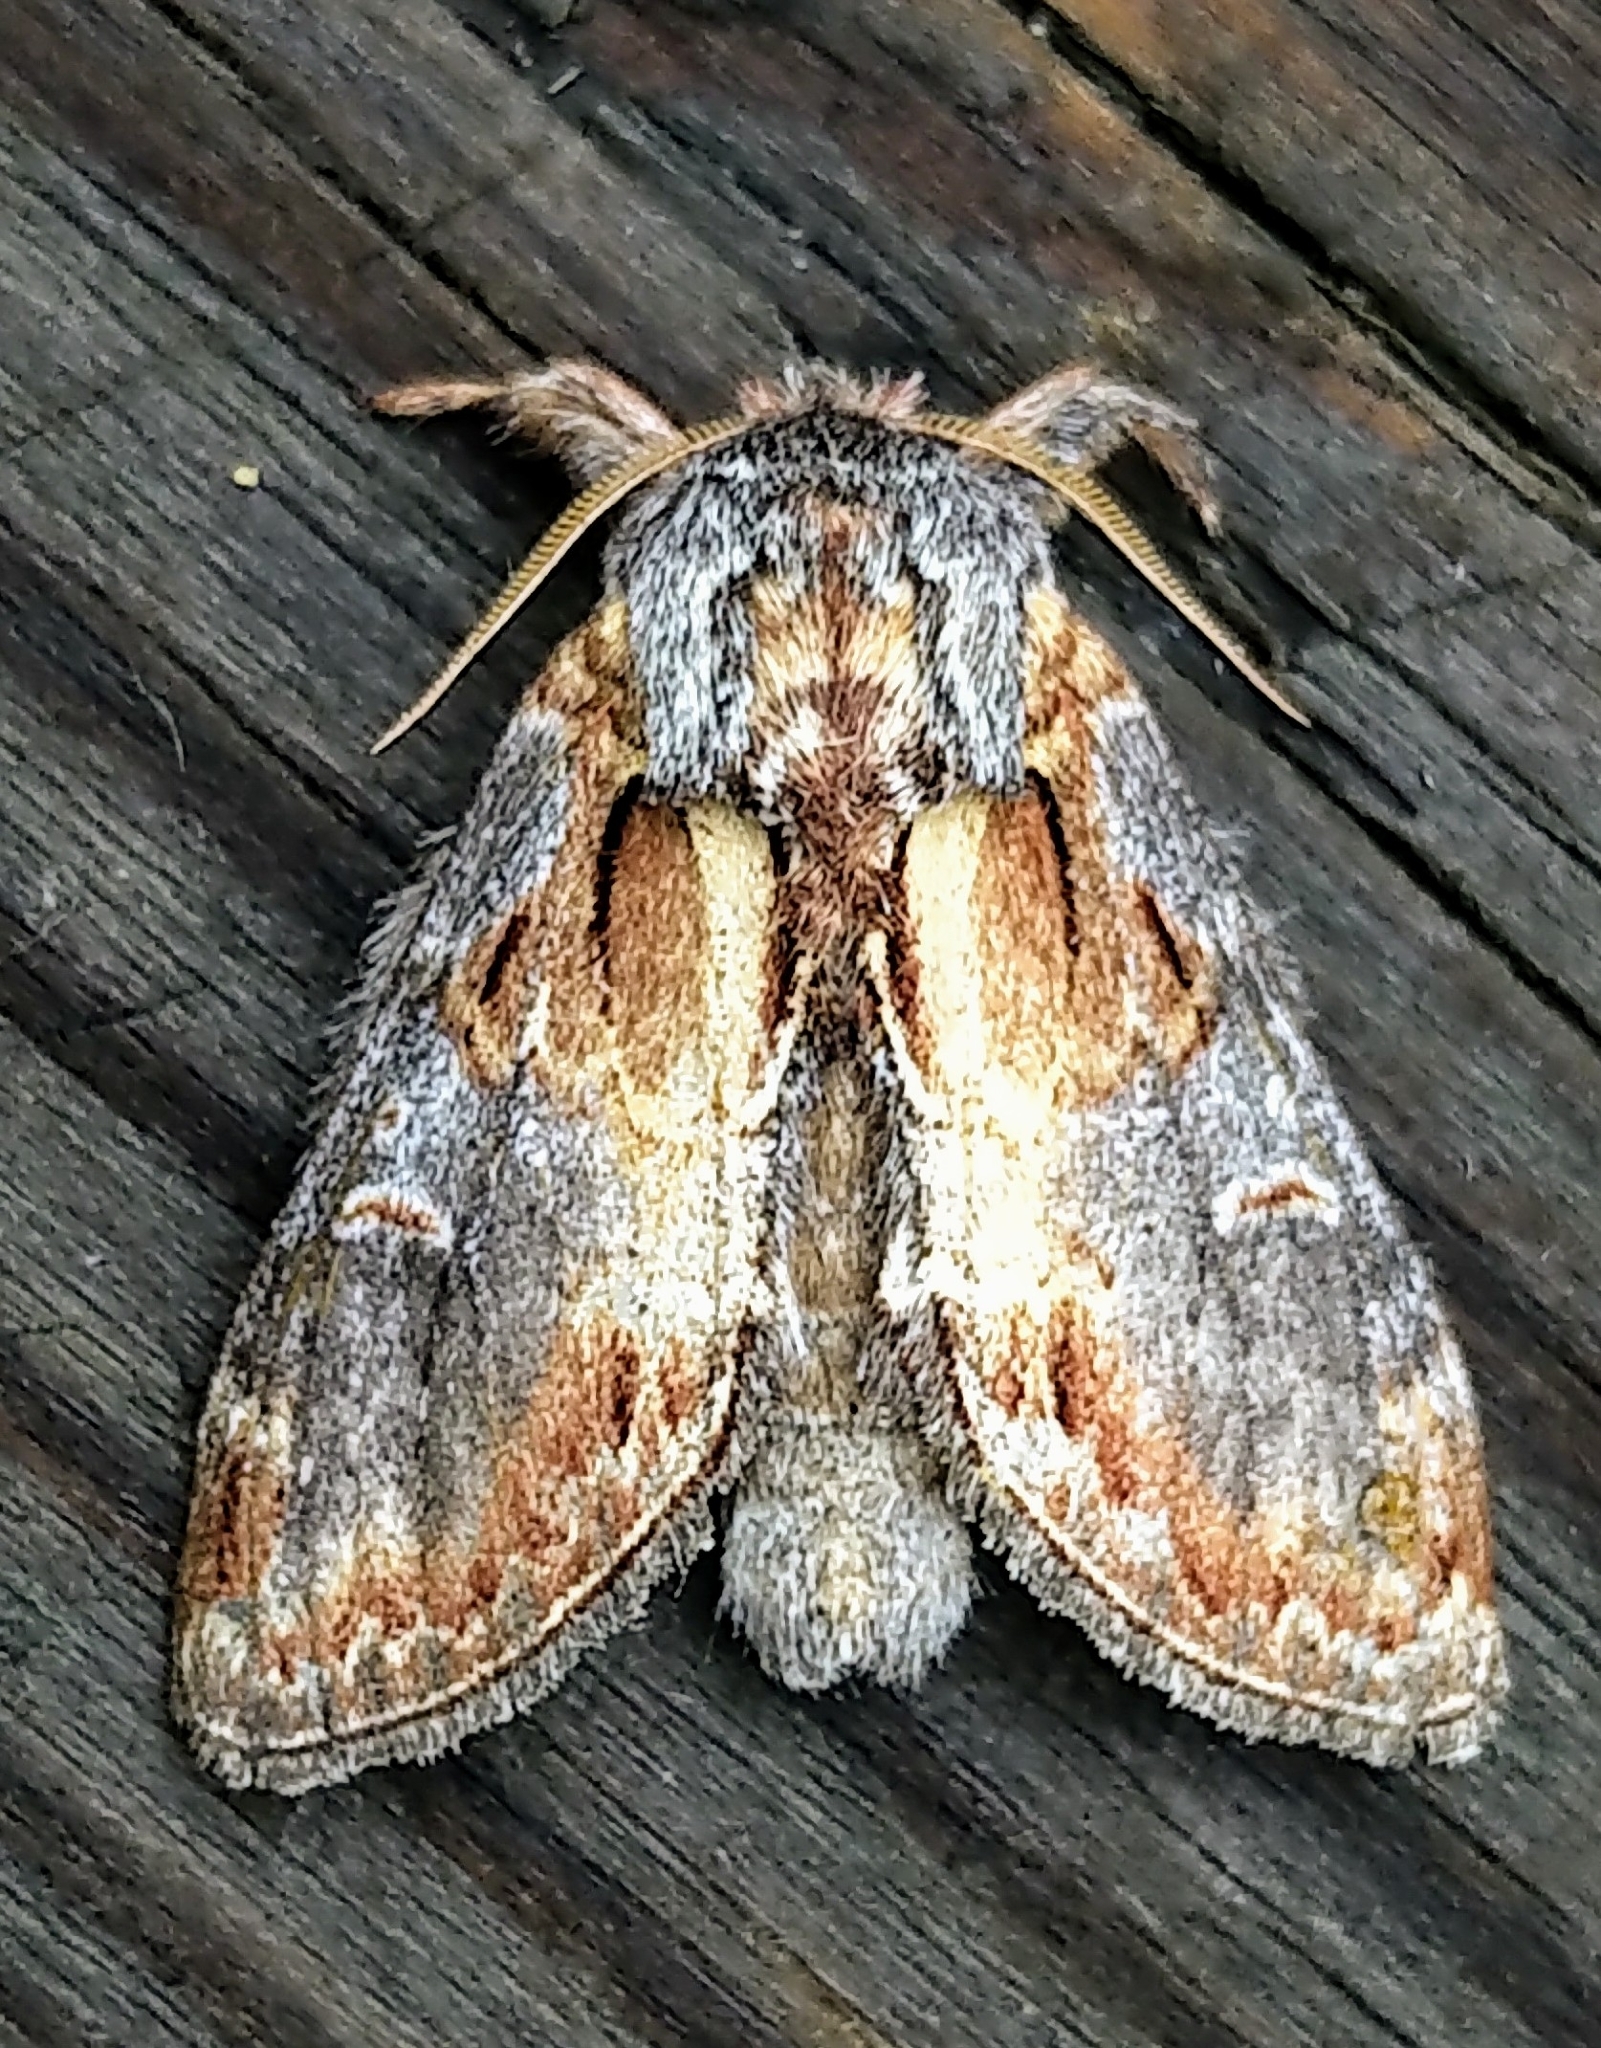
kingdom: Animalia
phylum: Arthropoda
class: Insecta
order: Lepidoptera
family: Notodontidae
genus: Notodonta
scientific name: Notodonta
